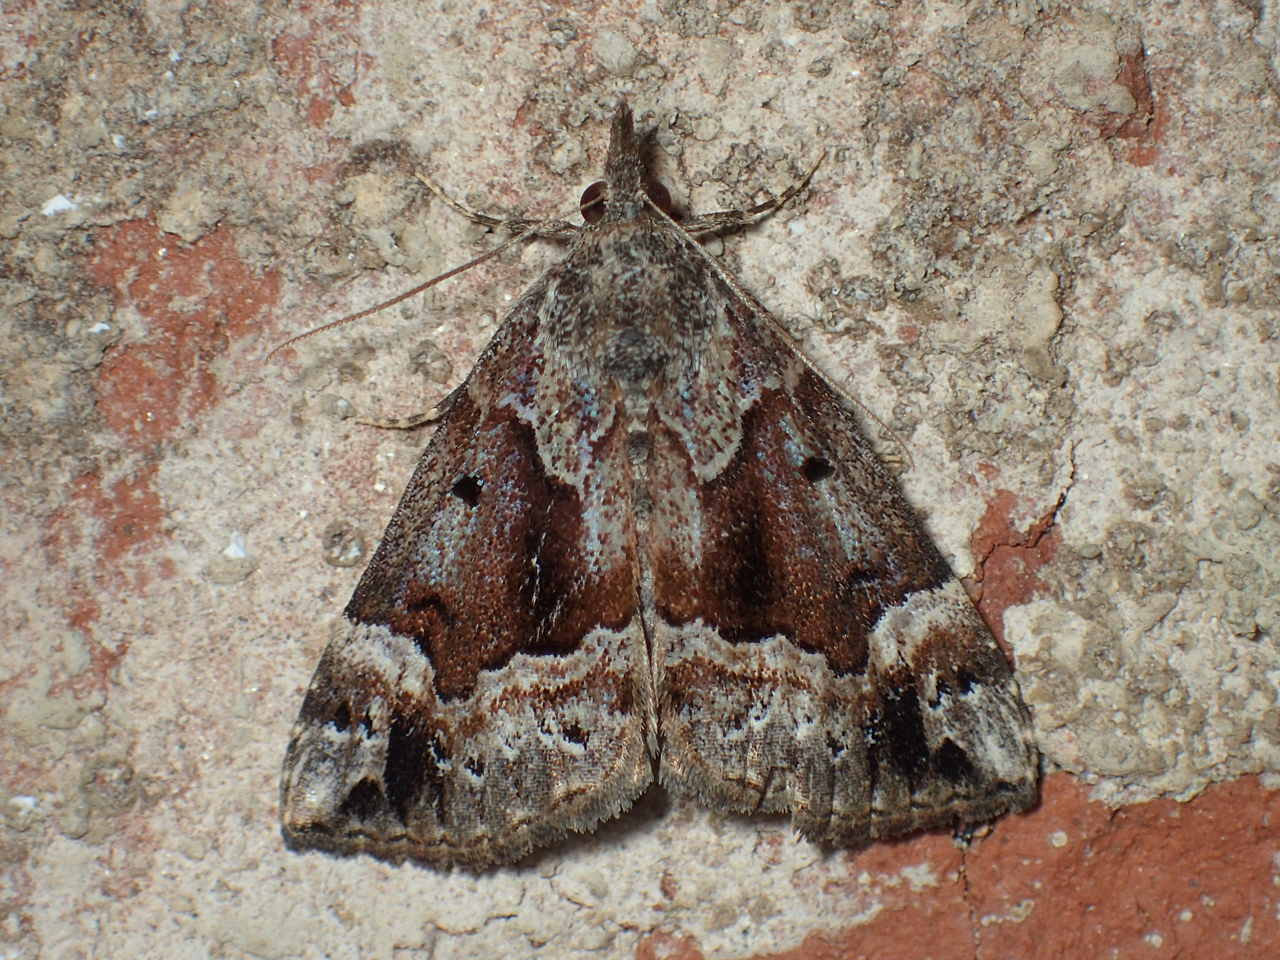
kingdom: Animalia
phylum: Arthropoda
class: Insecta
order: Lepidoptera
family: Erebidae
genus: Hypena
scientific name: Hypena palparia
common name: Mottled bomolocha moth
